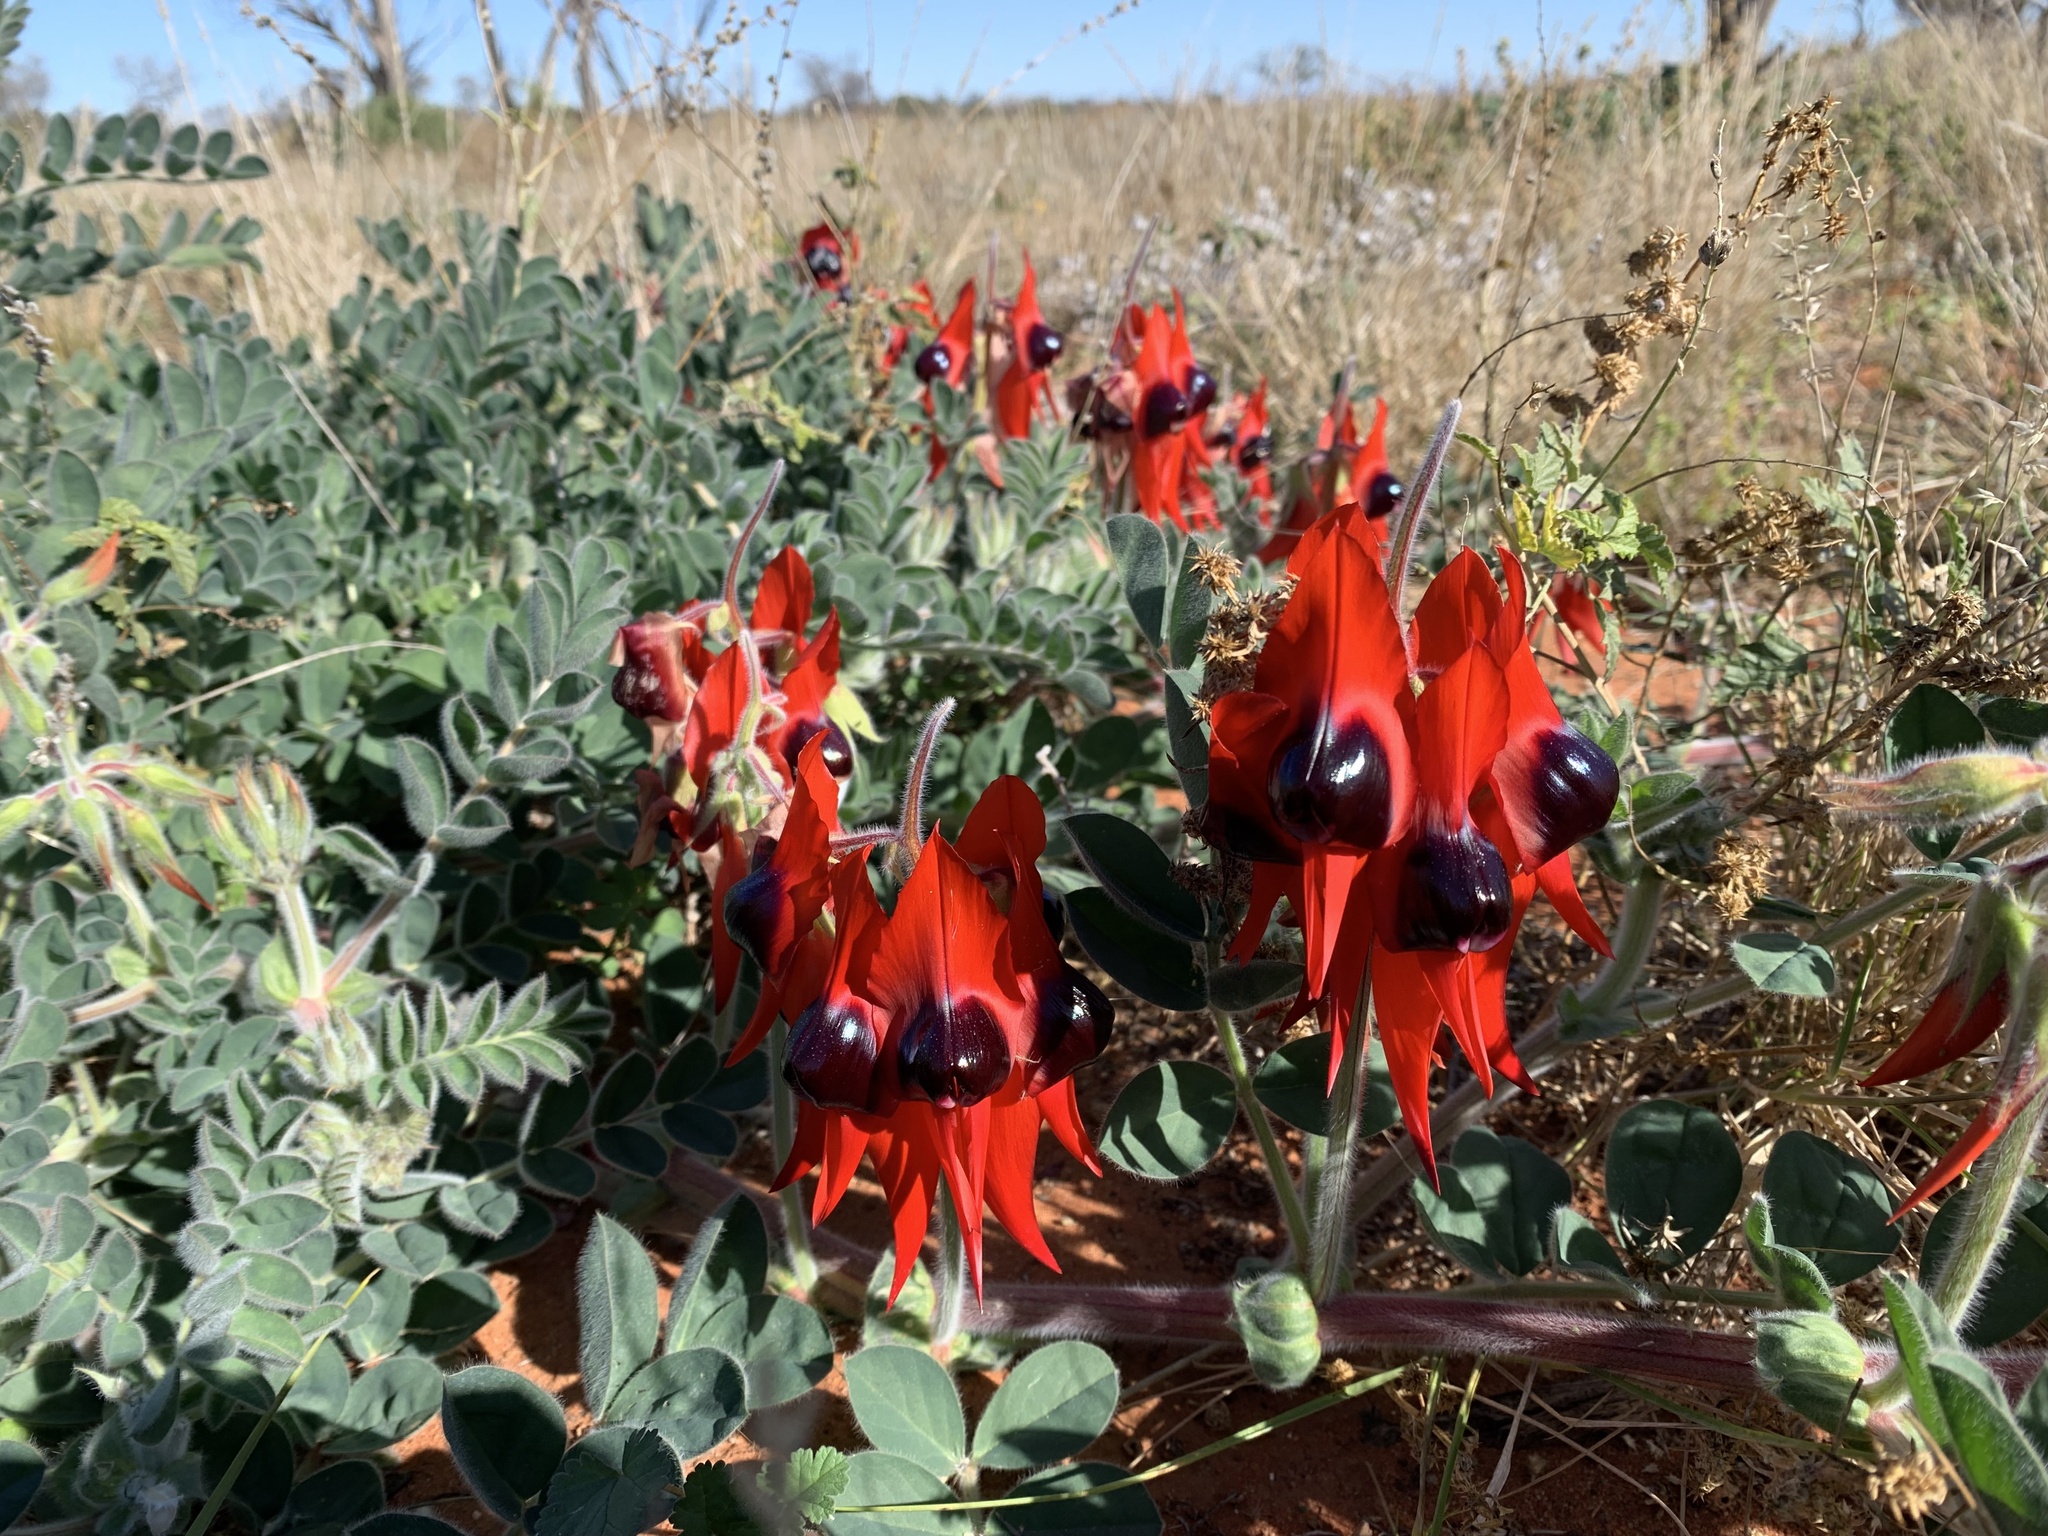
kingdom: Plantae
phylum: Tracheophyta
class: Magnoliopsida
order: Fabales
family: Fabaceae
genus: Swainsona
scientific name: Swainsona formosa
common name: Sturt's desert-pea
